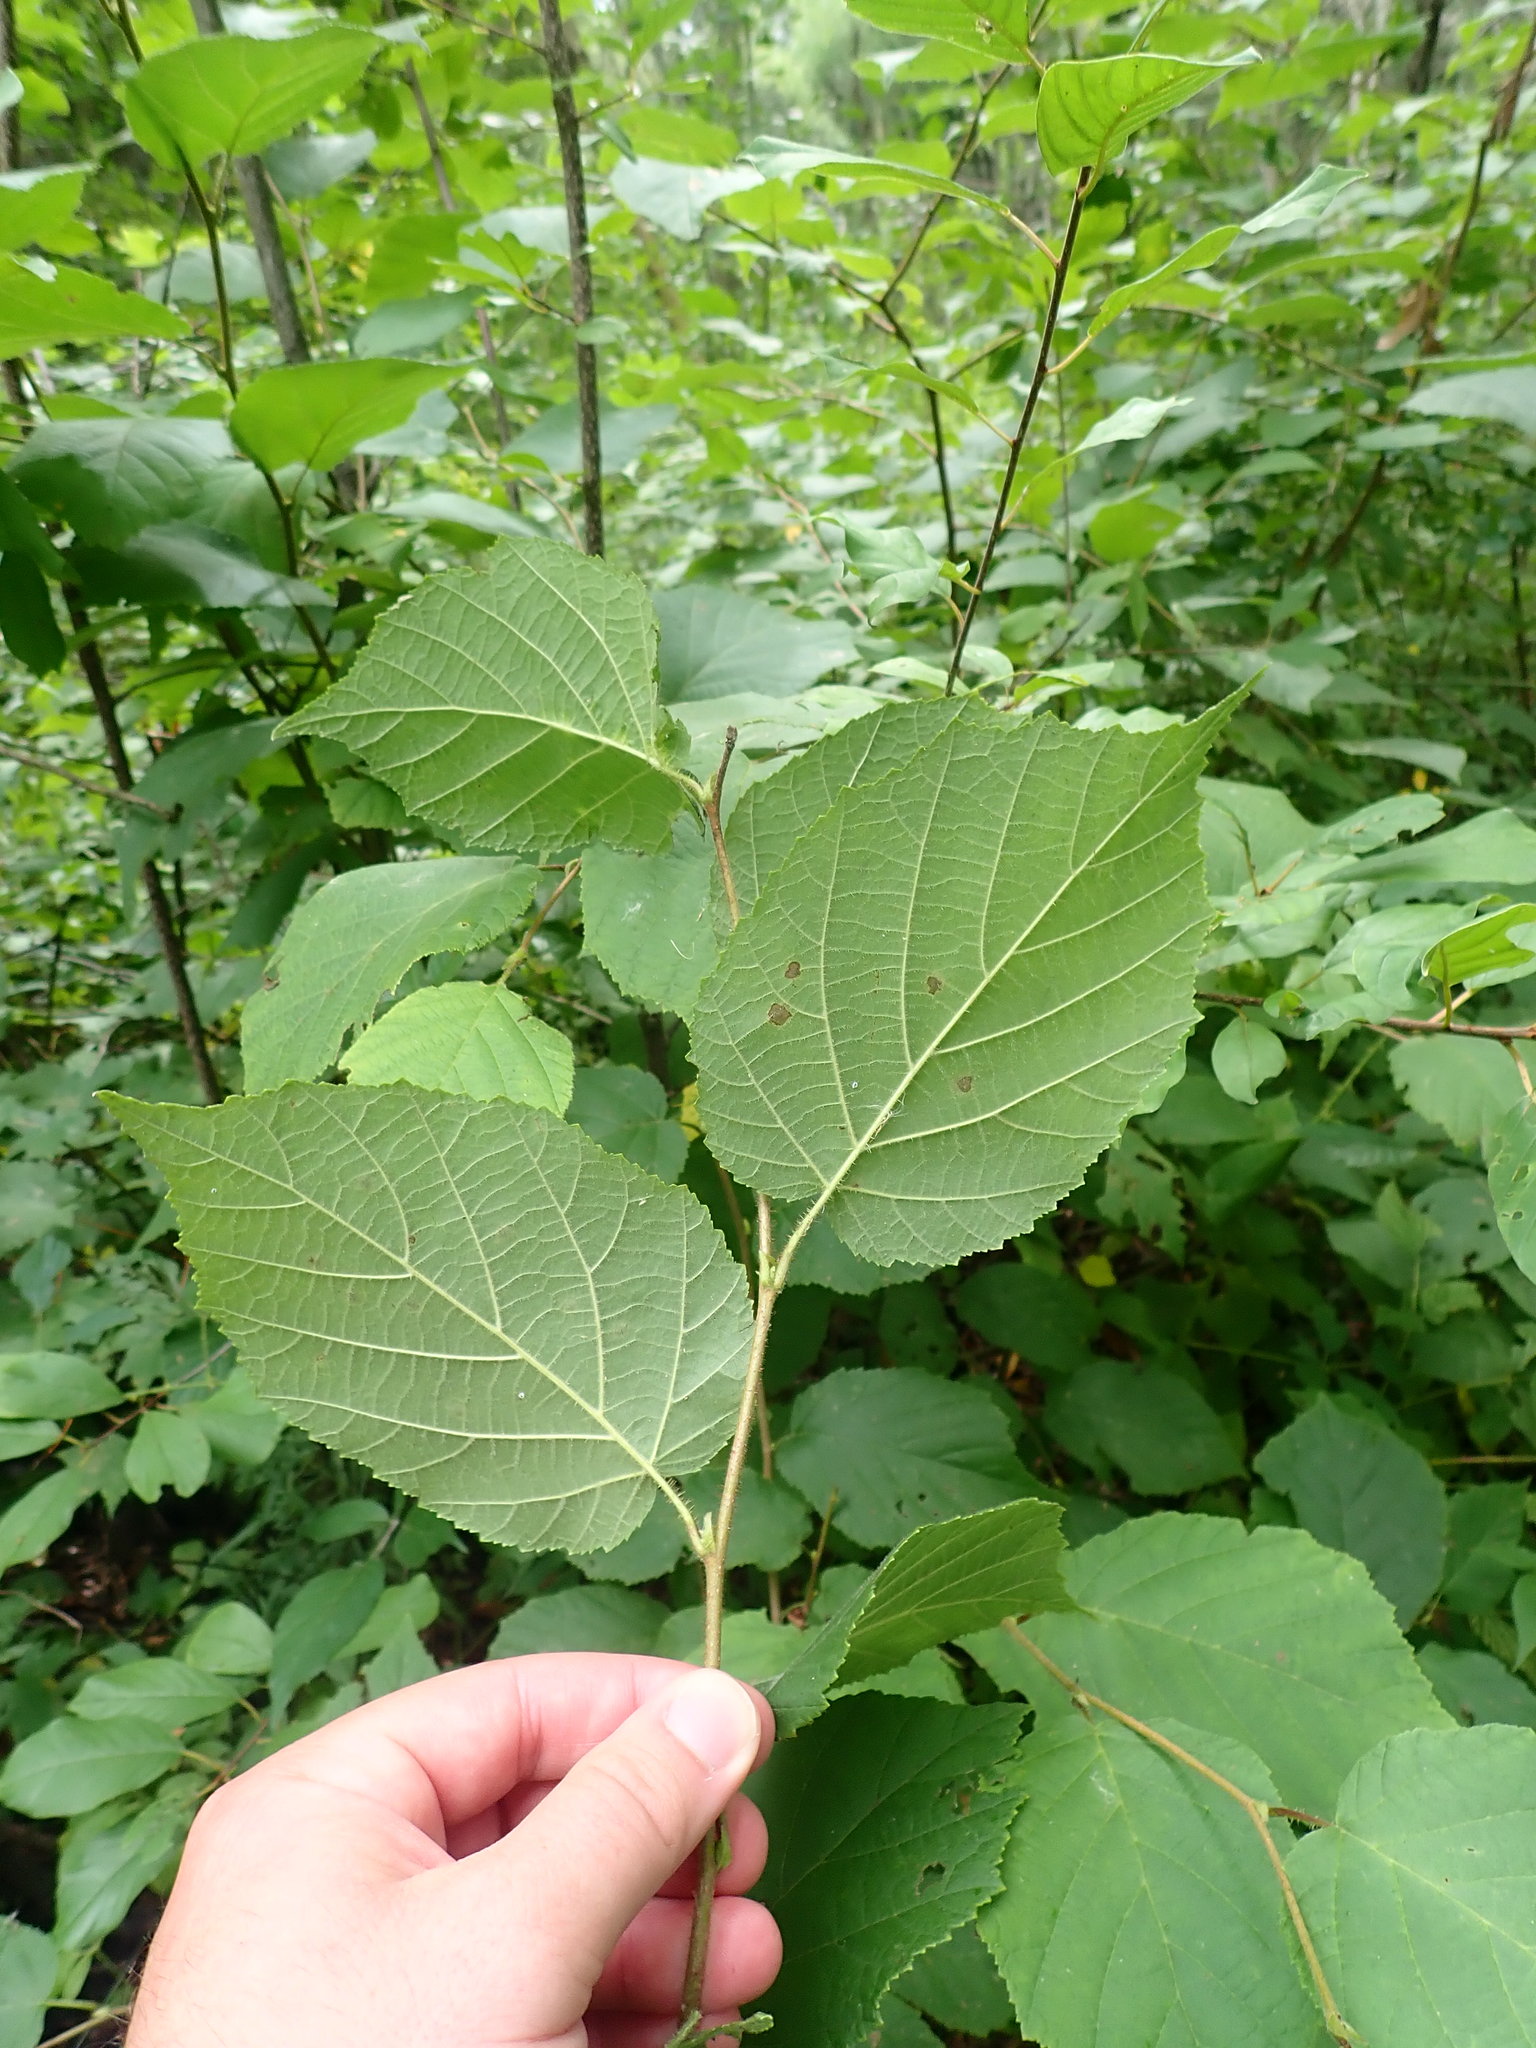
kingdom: Plantae
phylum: Tracheophyta
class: Magnoliopsida
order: Fagales
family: Betulaceae
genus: Corylus
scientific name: Corylus americana
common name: American hazel
